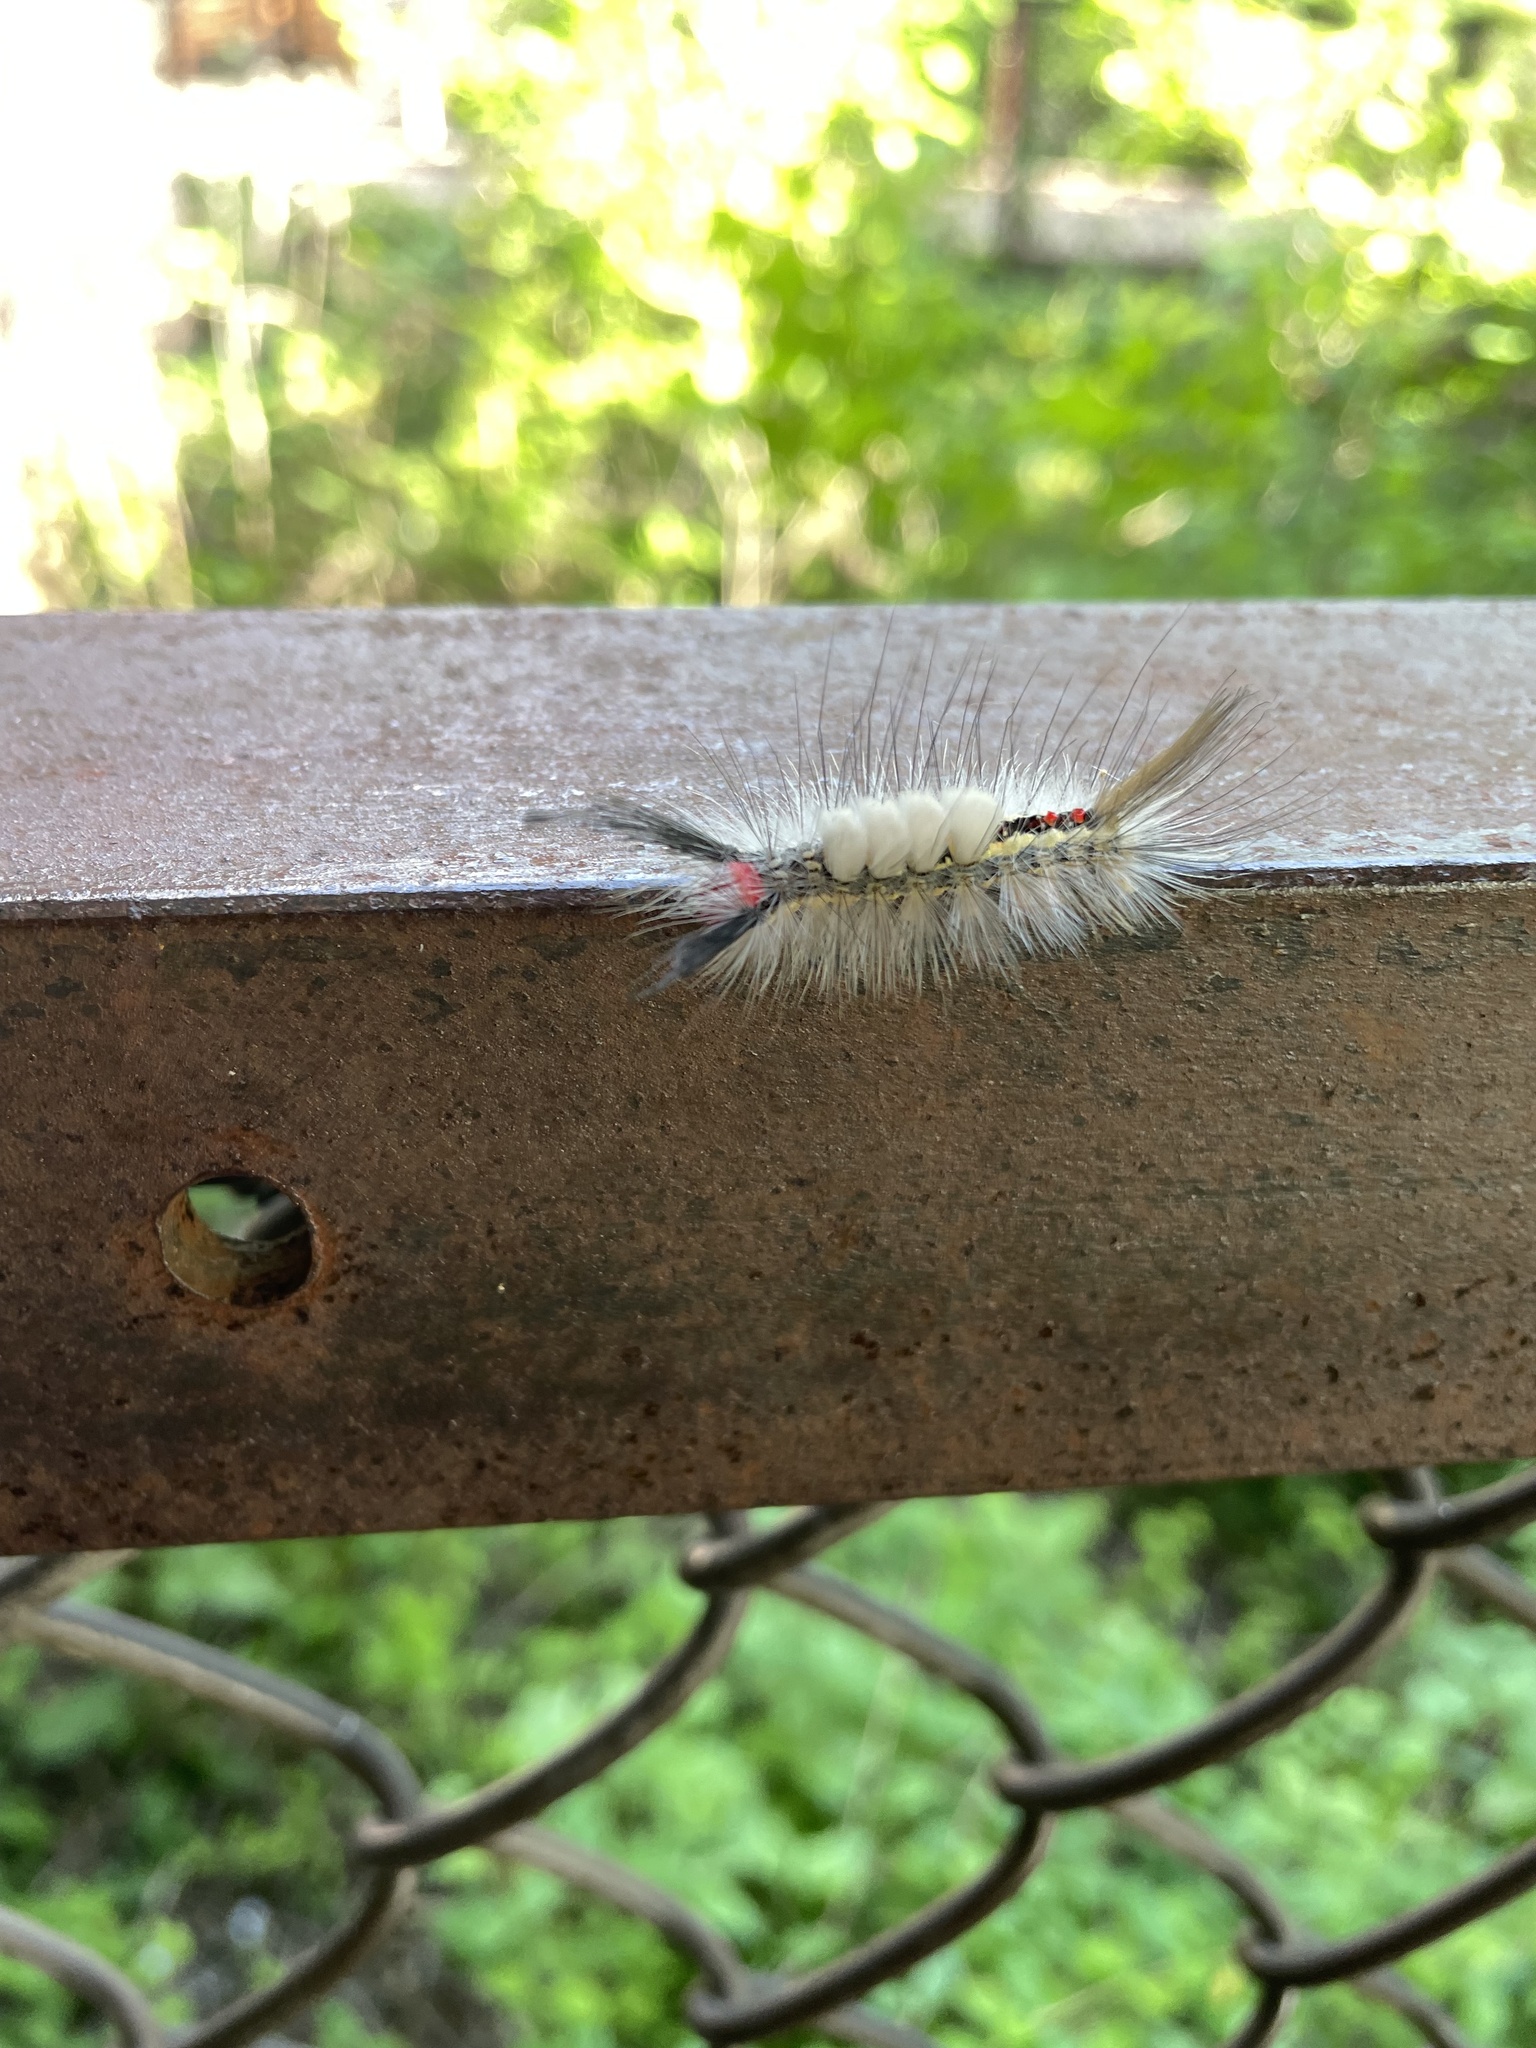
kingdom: Animalia
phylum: Arthropoda
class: Insecta
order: Lepidoptera
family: Erebidae
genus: Orgyia
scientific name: Orgyia leucostigma
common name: White-marked tussock moth
